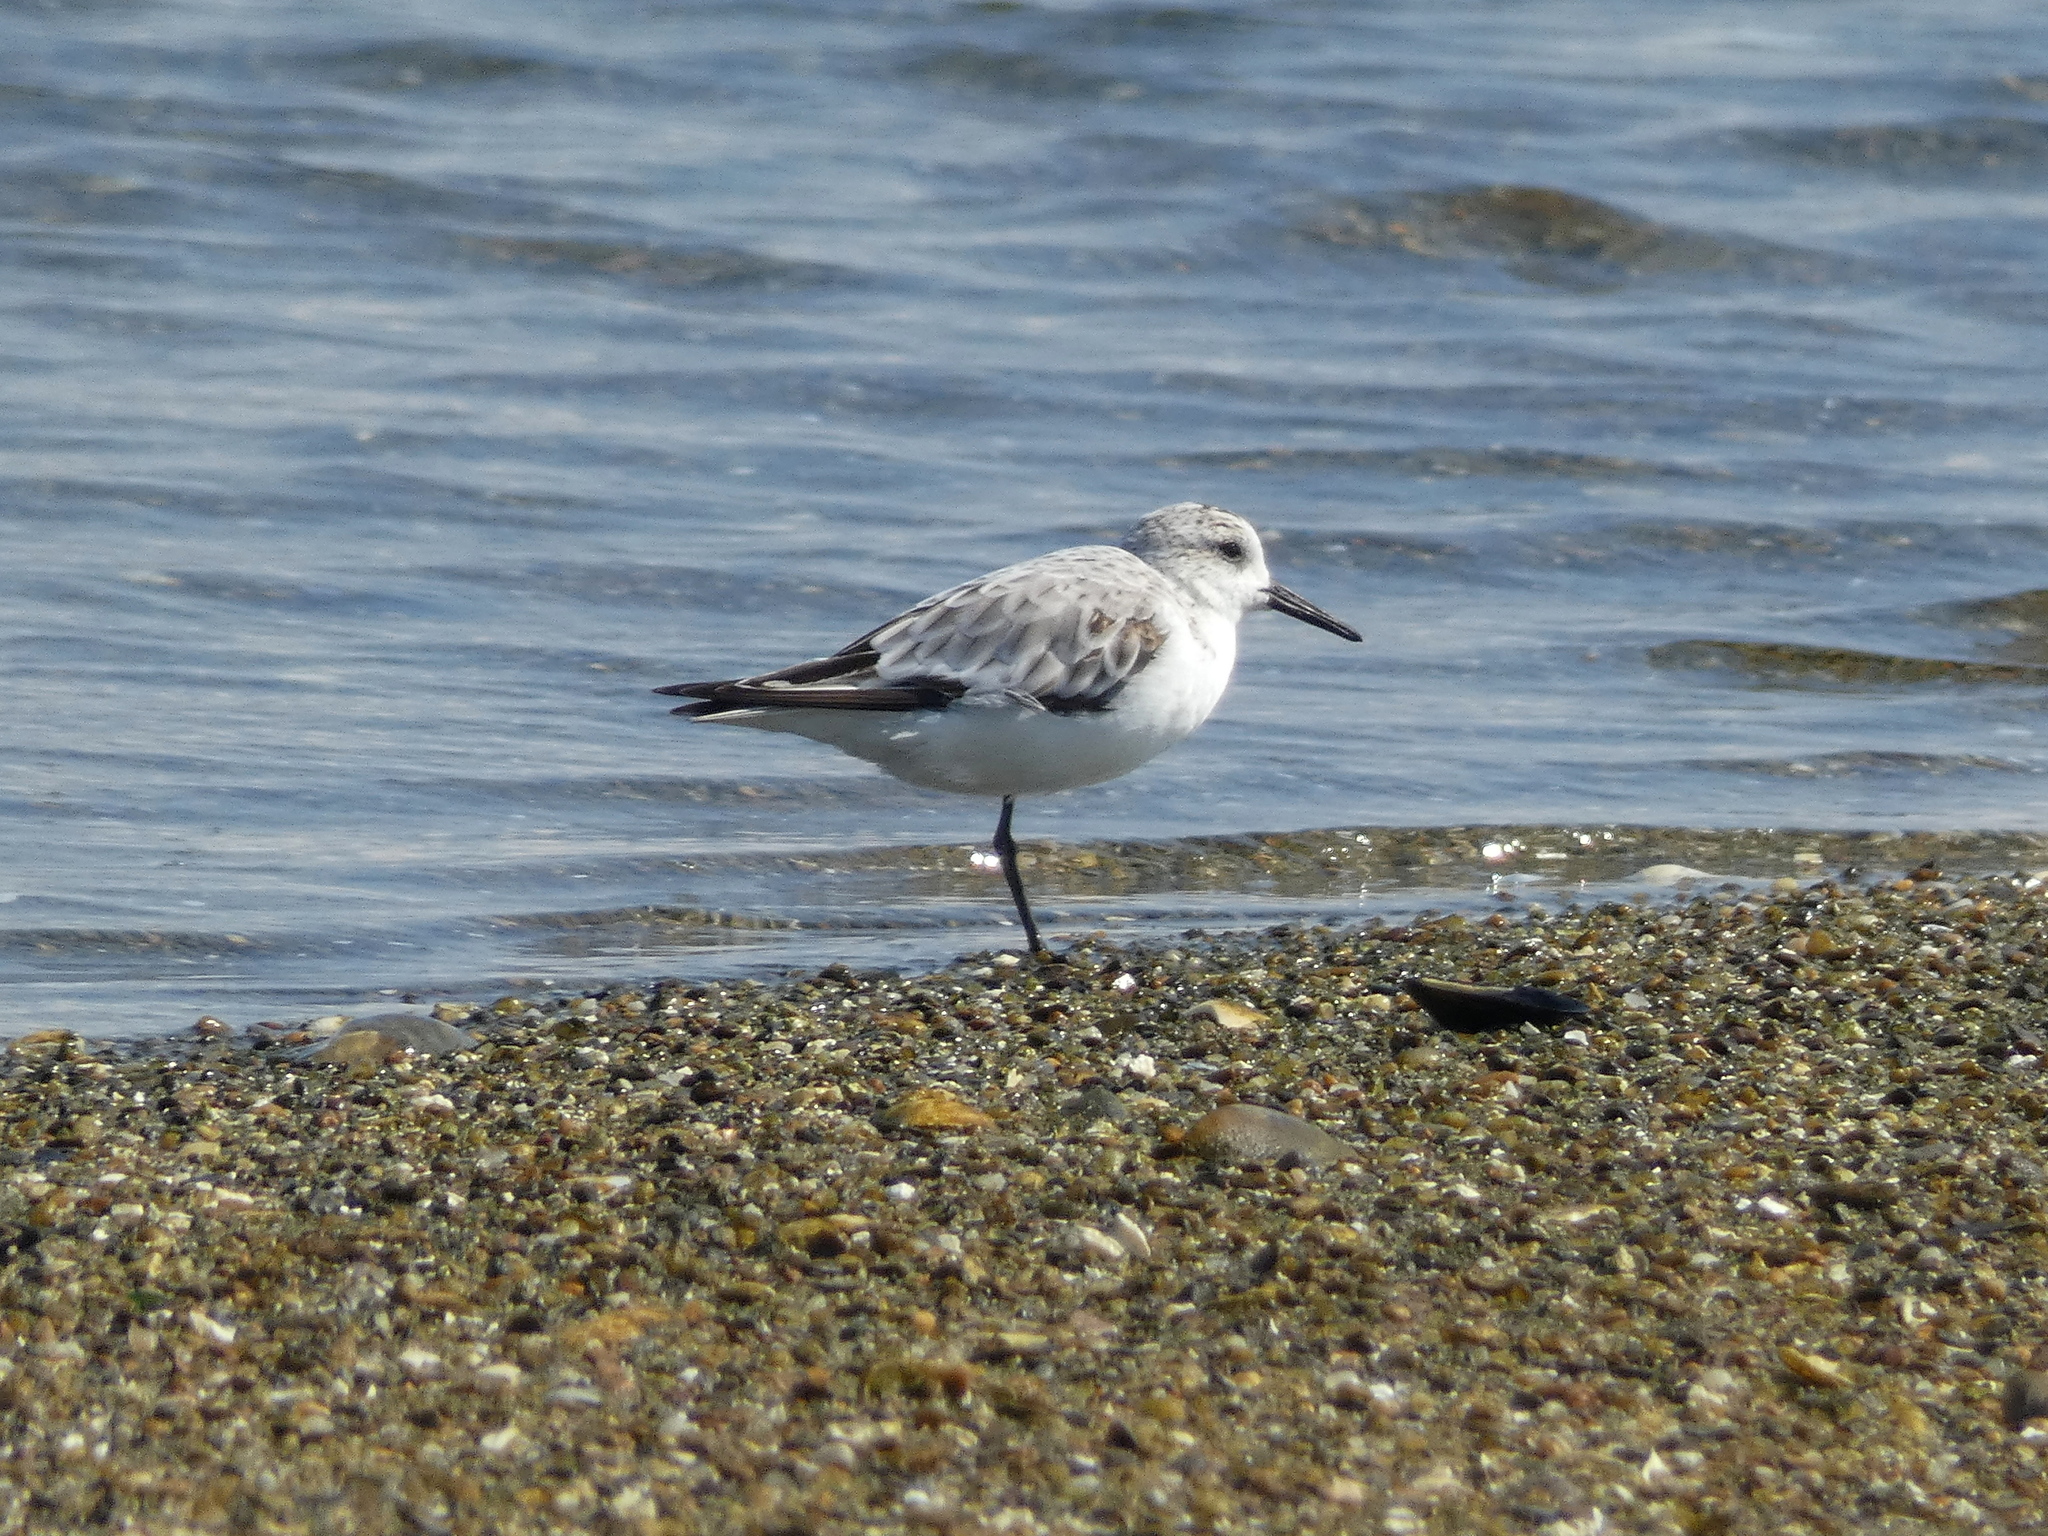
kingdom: Animalia
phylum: Chordata
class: Aves
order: Charadriiformes
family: Scolopacidae
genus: Calidris
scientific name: Calidris alba
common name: Sanderling
